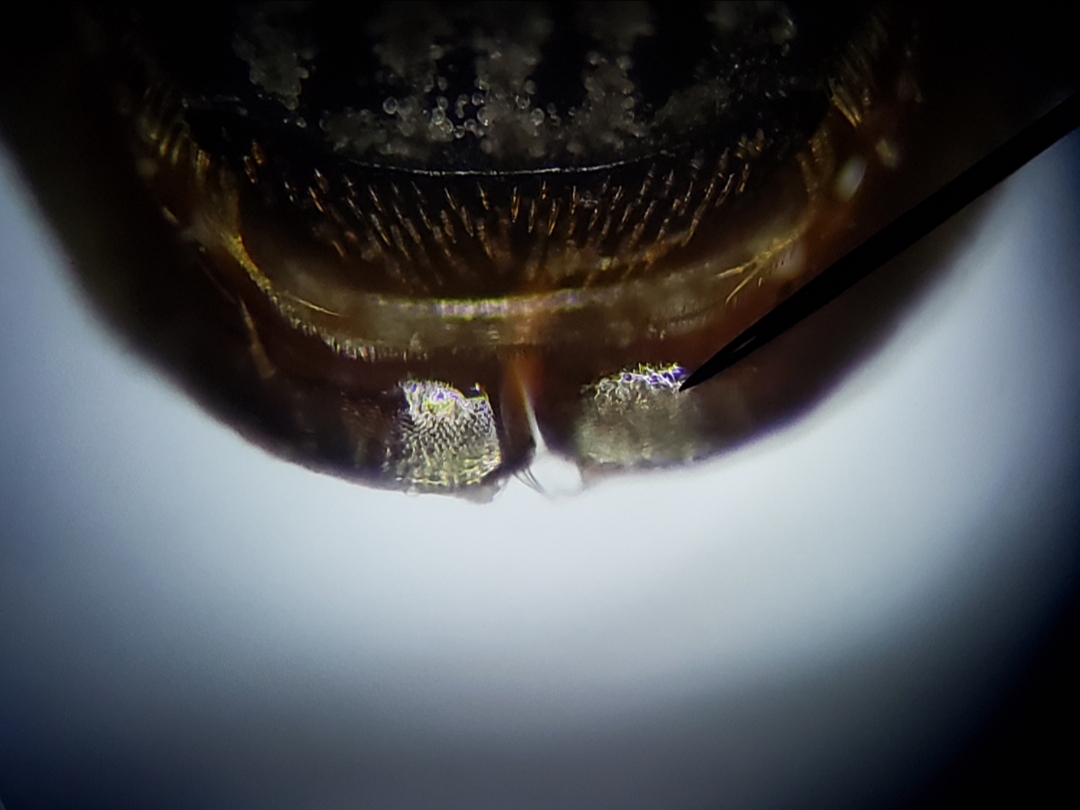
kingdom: Animalia
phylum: Arthropoda
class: Insecta
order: Coleoptera
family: Hydrochidae
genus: Hydrochus
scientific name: Hydrochus rugosus
